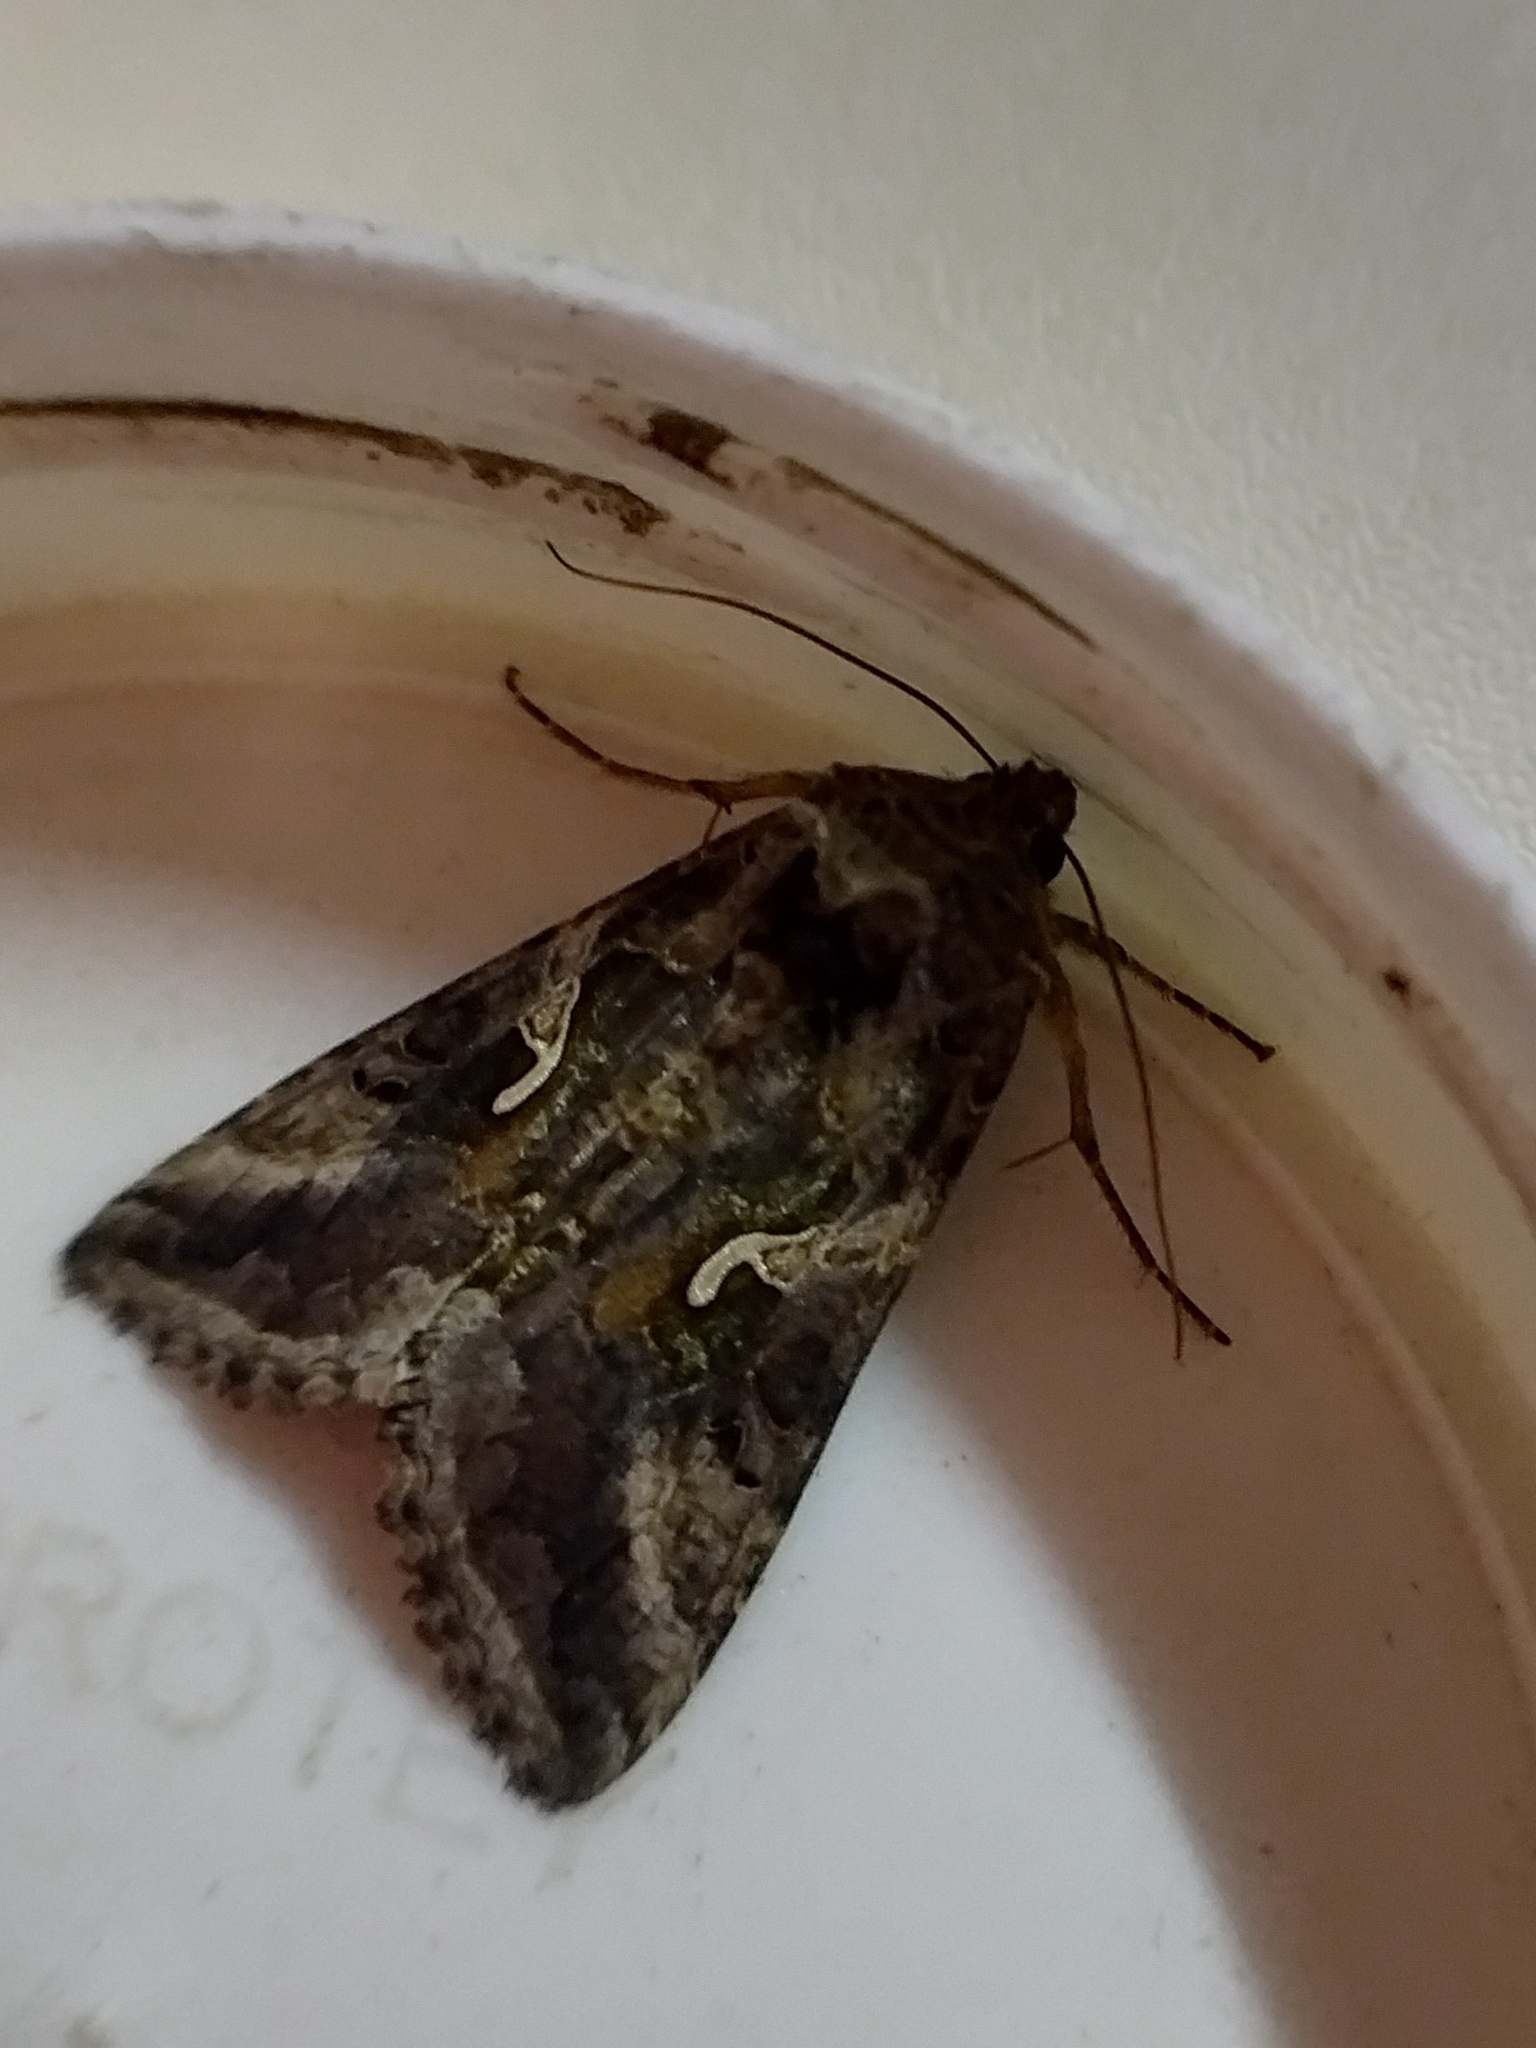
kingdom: Animalia
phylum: Arthropoda
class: Insecta
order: Lepidoptera
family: Noctuidae
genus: Autographa
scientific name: Autographa gamma
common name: Silver y
